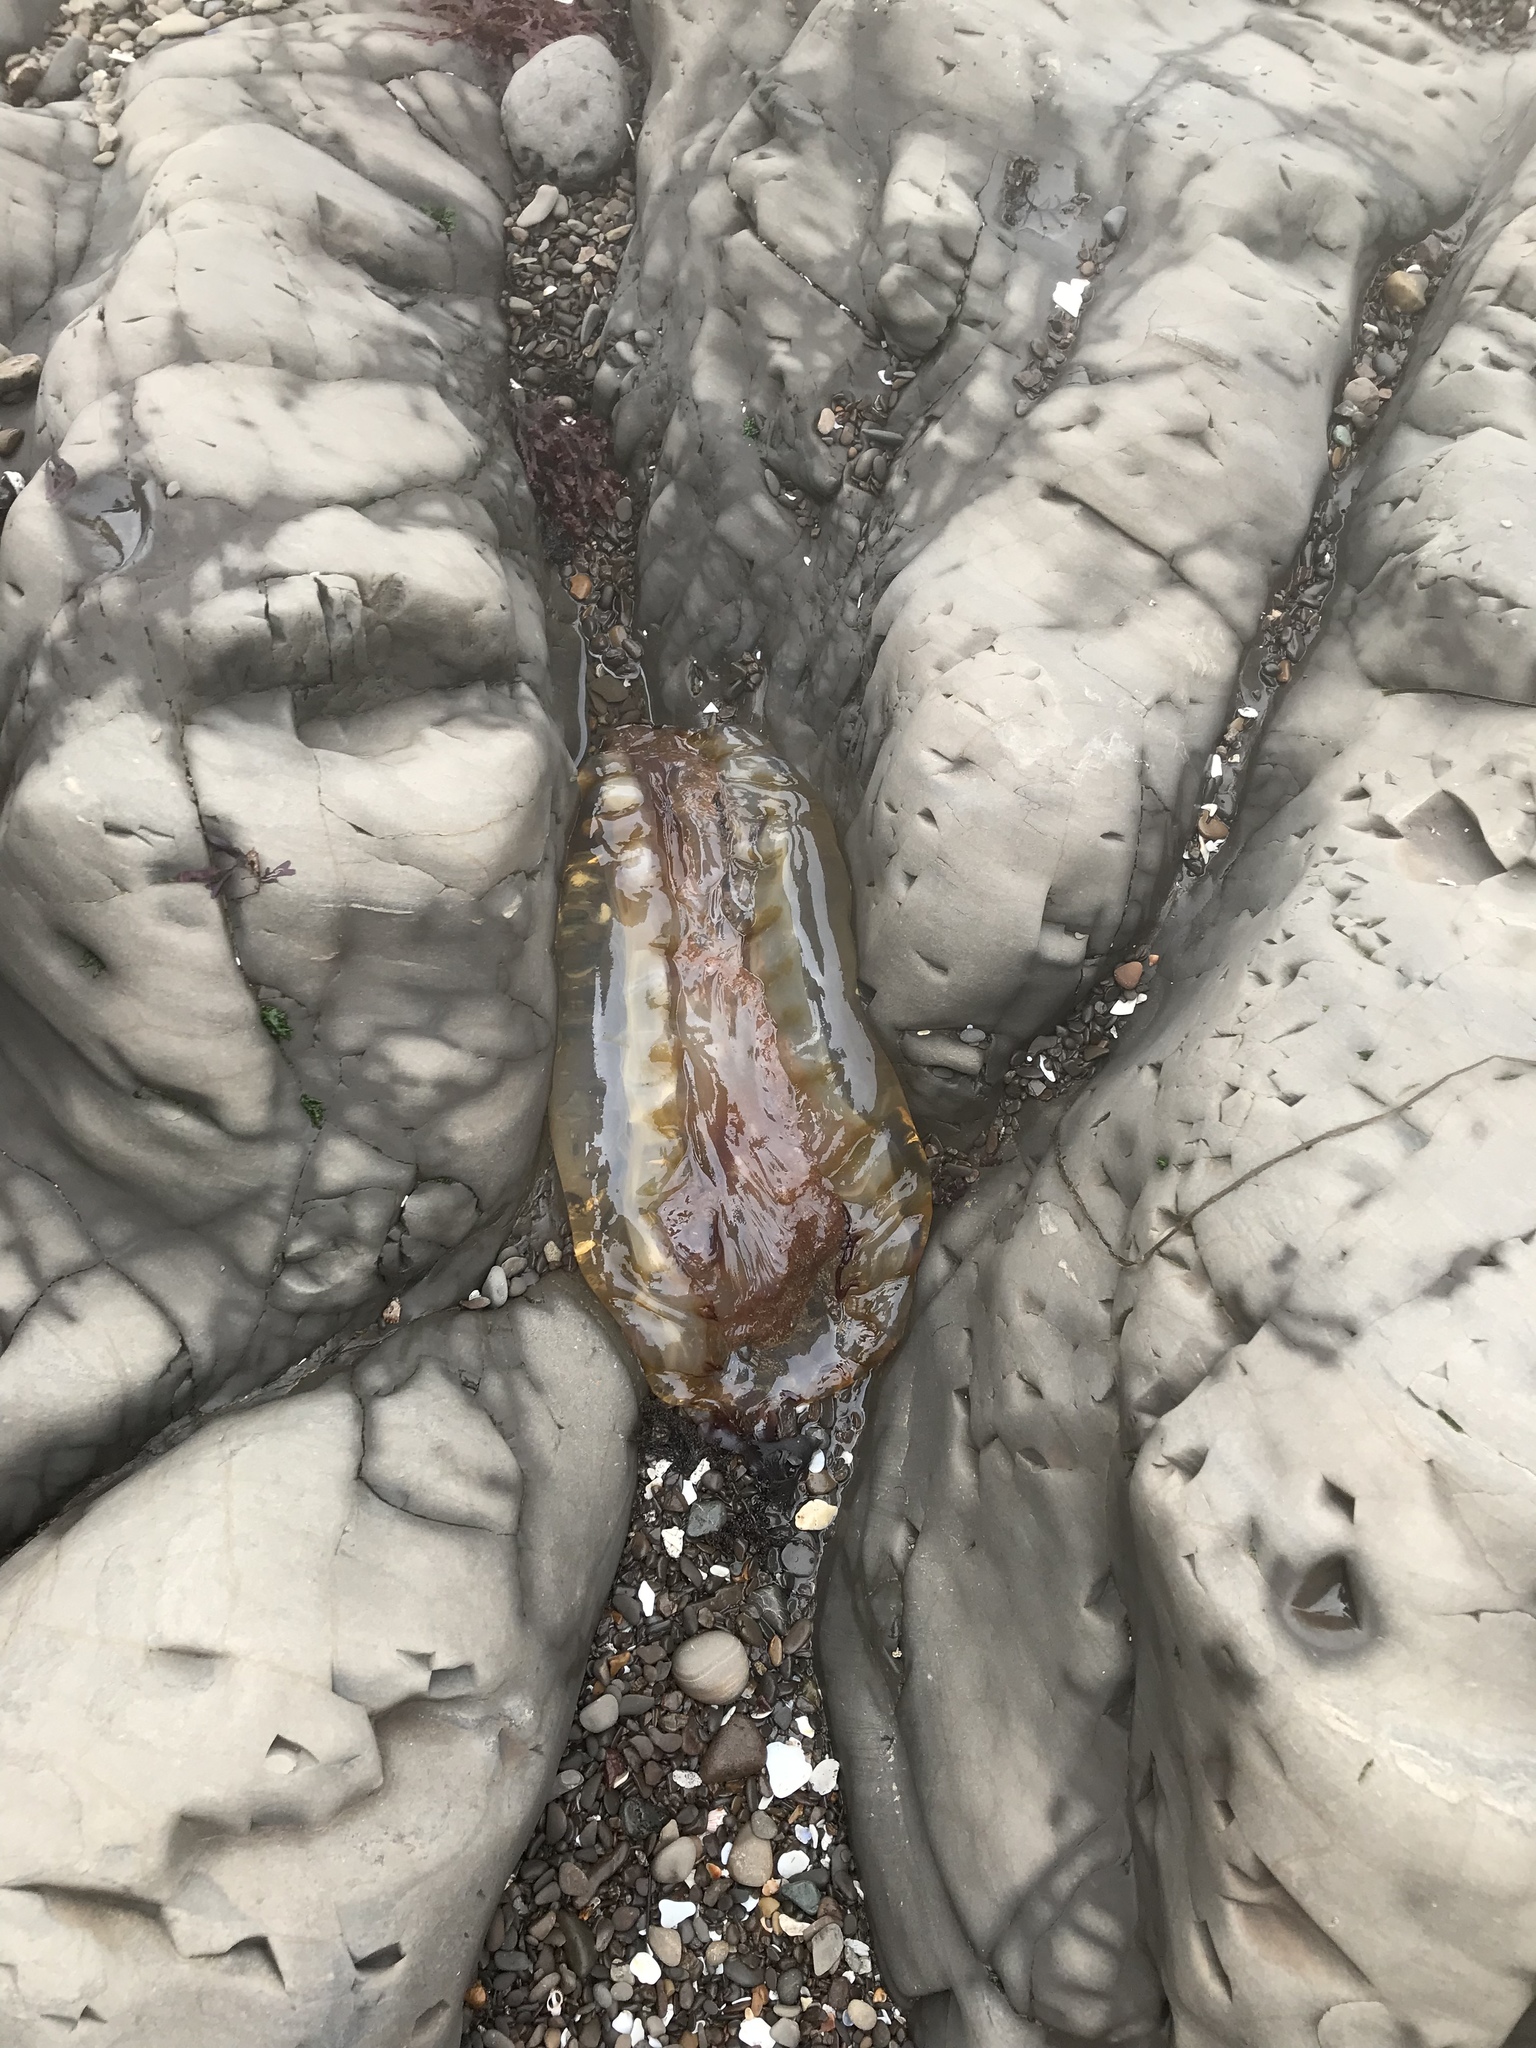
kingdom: Animalia
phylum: Cnidaria
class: Scyphozoa
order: Semaeostomeae
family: Pelagiidae
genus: Chrysaora
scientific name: Chrysaora fuscescens
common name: Sea nettle
